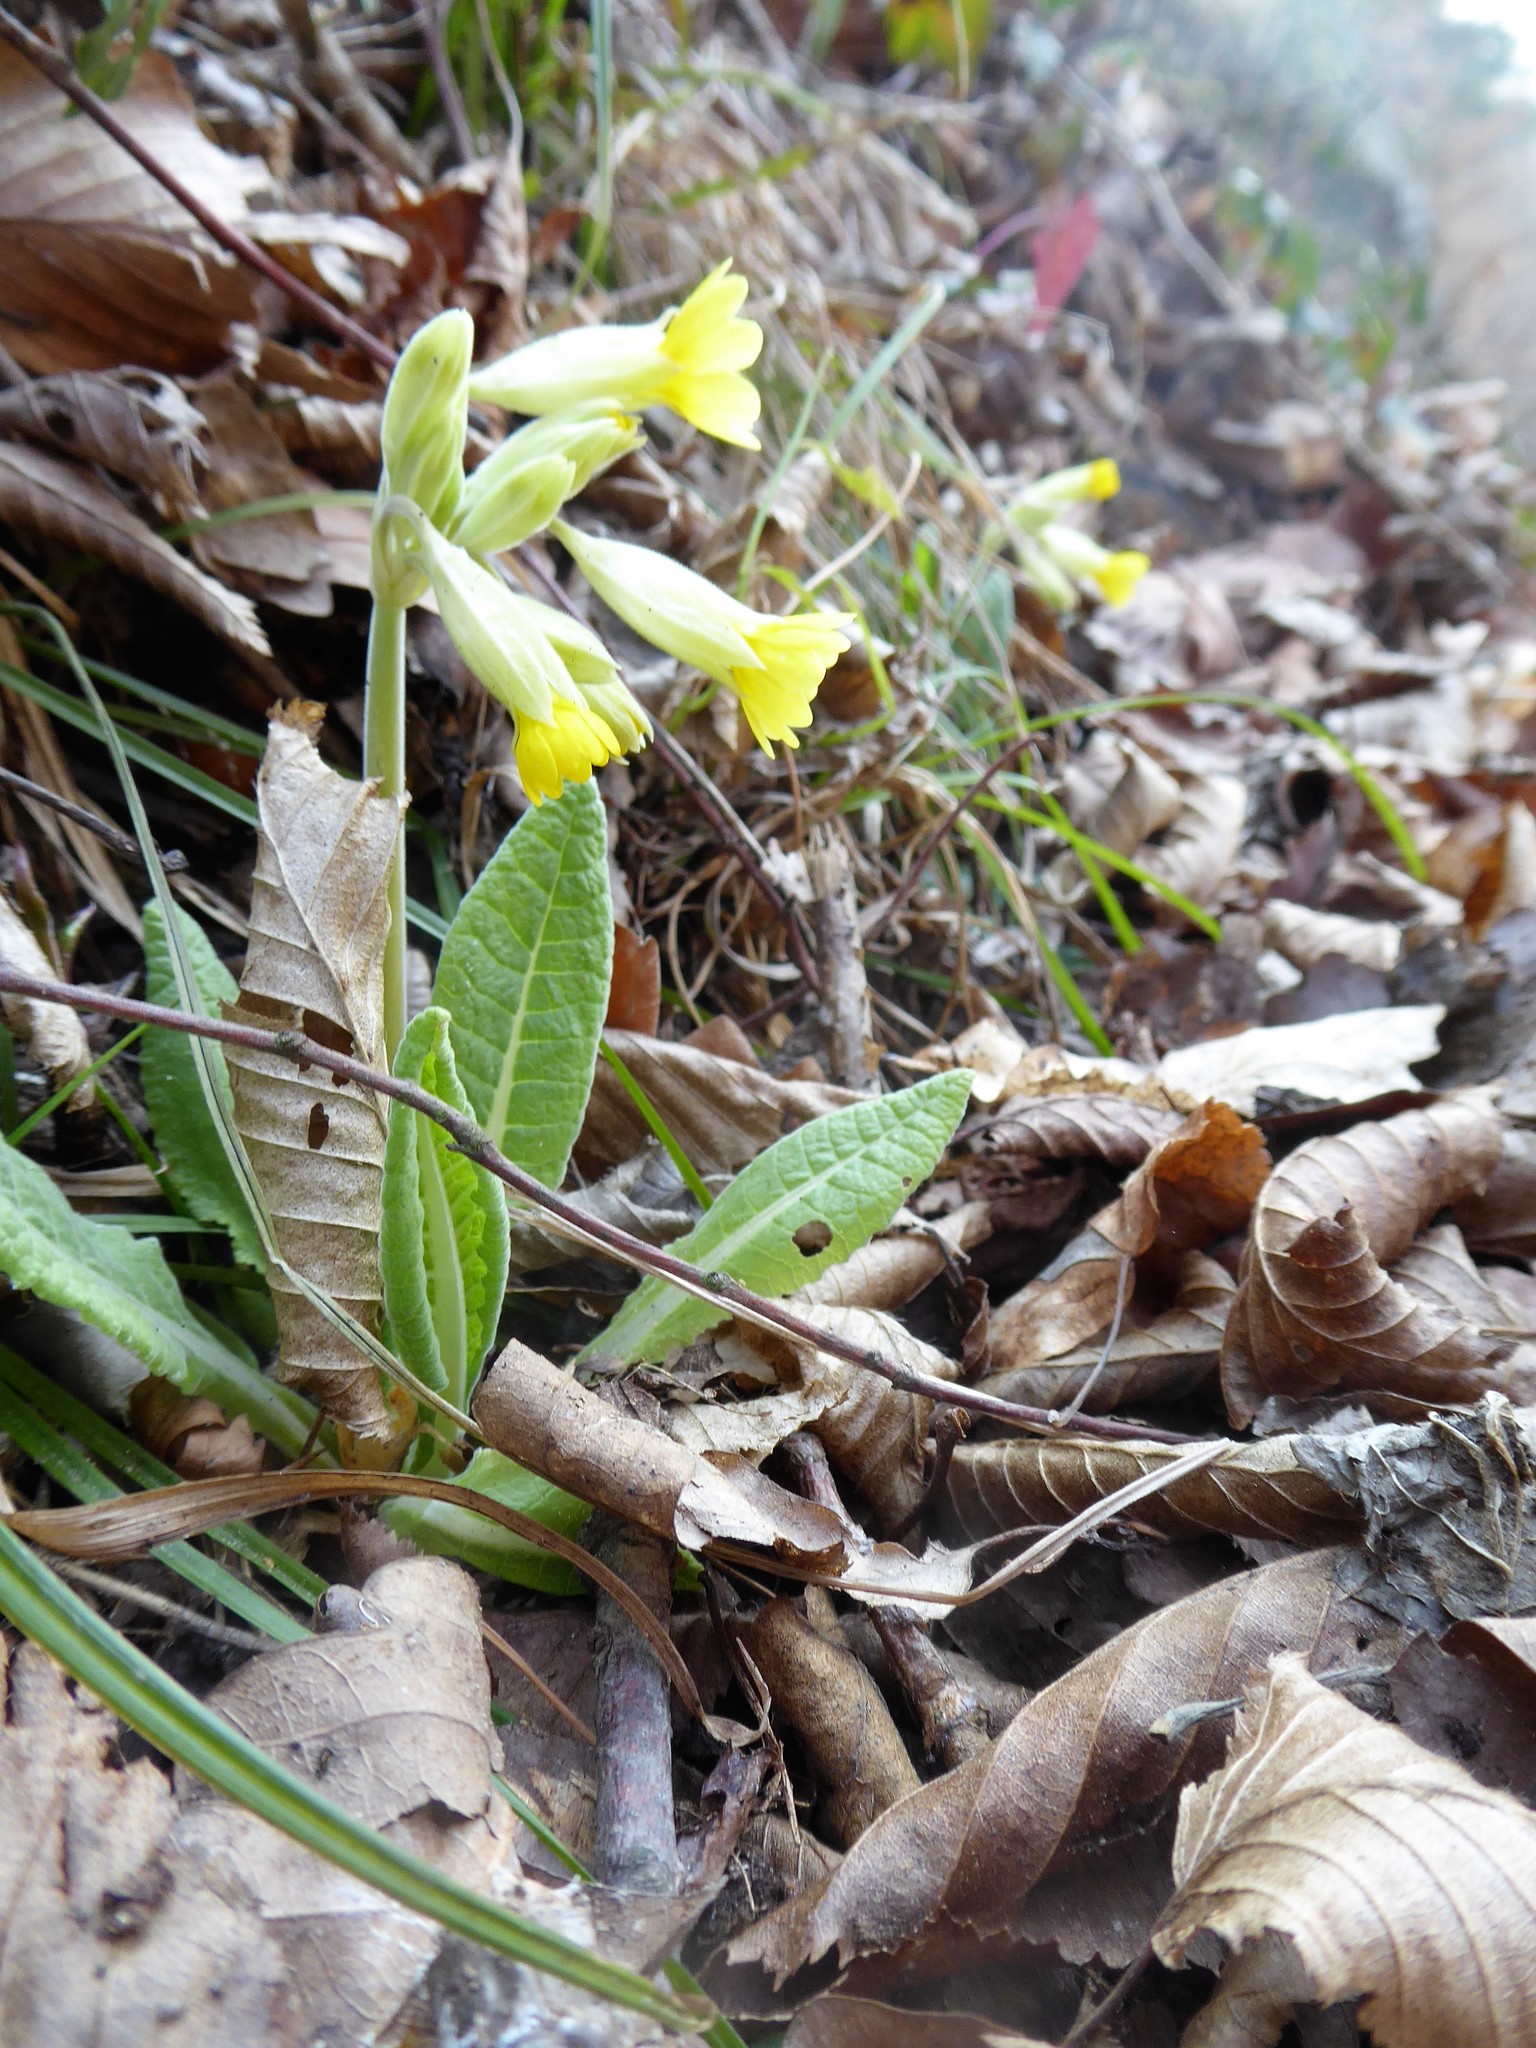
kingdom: Plantae
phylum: Tracheophyta
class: Magnoliopsida
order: Ericales
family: Primulaceae
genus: Primula
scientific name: Primula veris
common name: Cowslip
